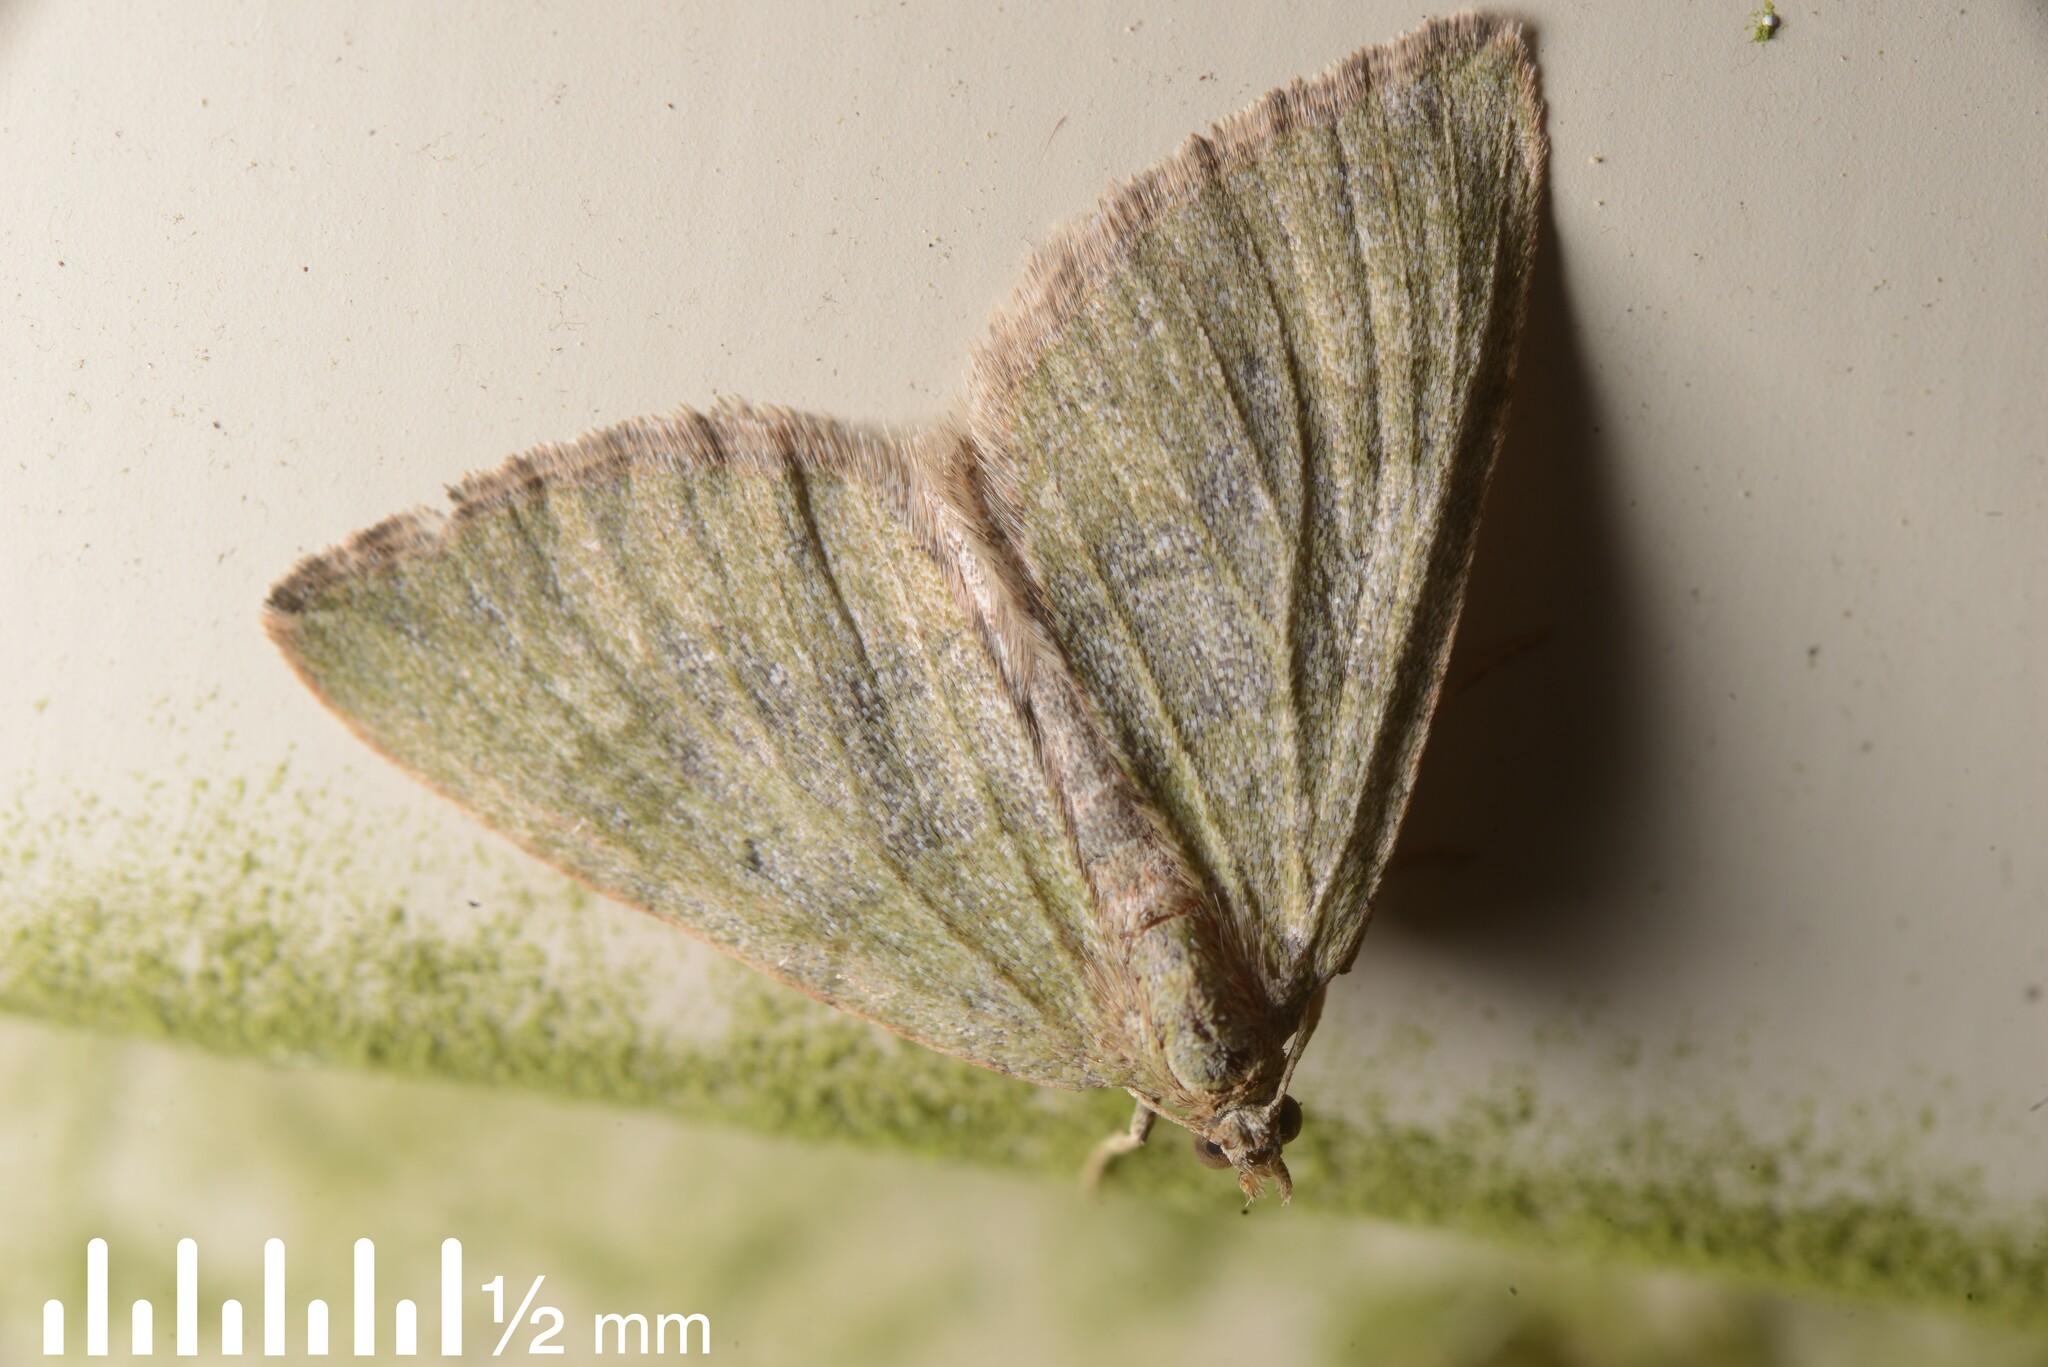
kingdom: Animalia
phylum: Arthropoda
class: Insecta
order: Lepidoptera
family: Geometridae
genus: Epyaxa
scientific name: Epyaxa rosearia
